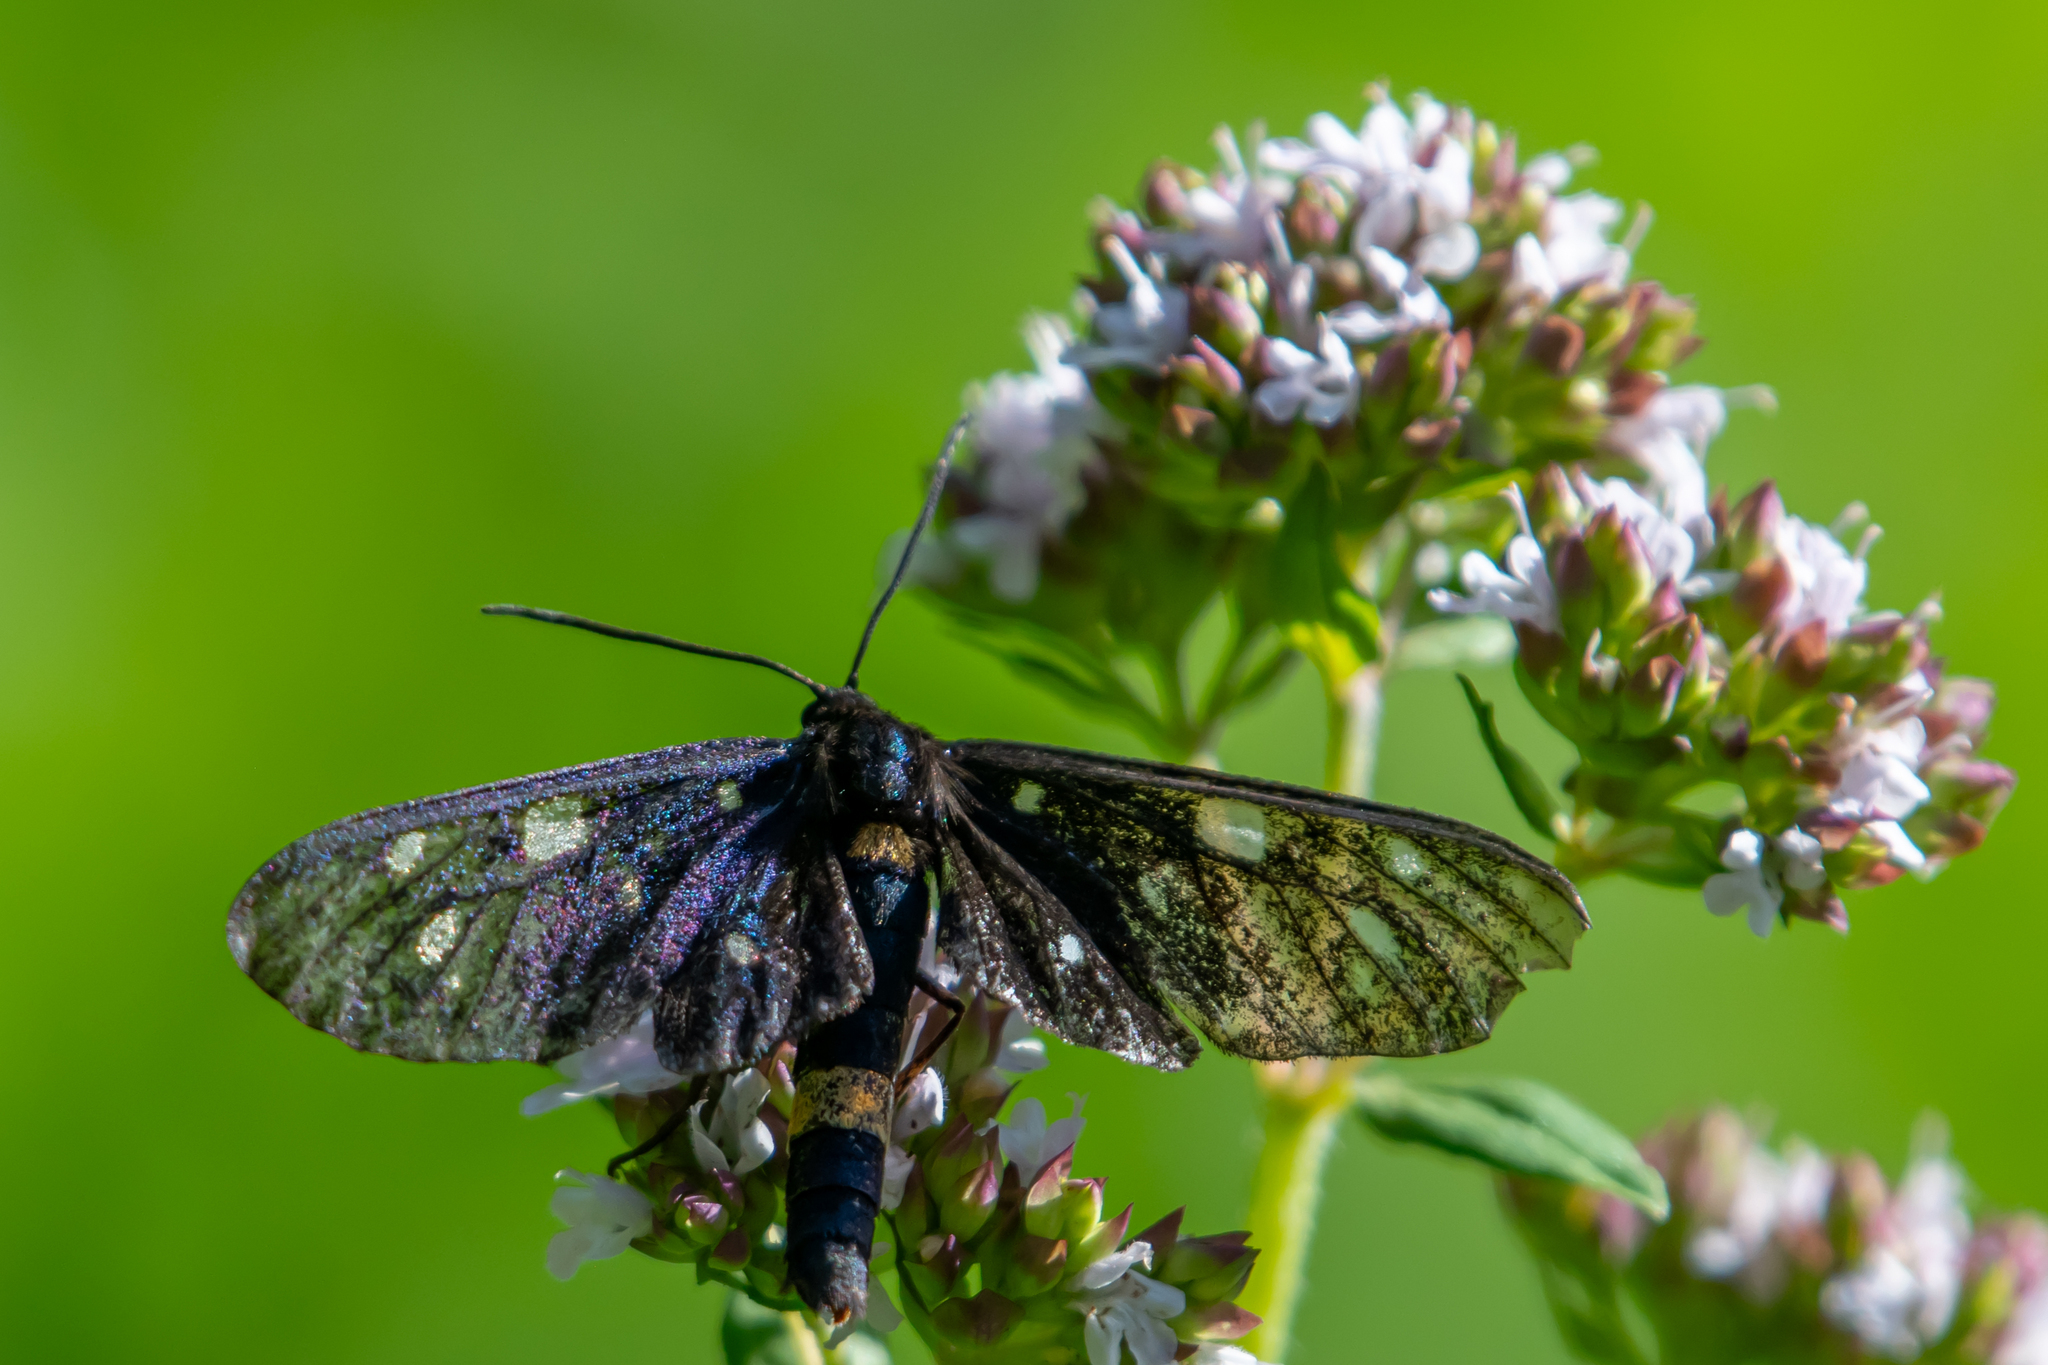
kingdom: Animalia
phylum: Arthropoda
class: Insecta
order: Lepidoptera
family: Erebidae
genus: Amata
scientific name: Amata phegea
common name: Nine-spotted
